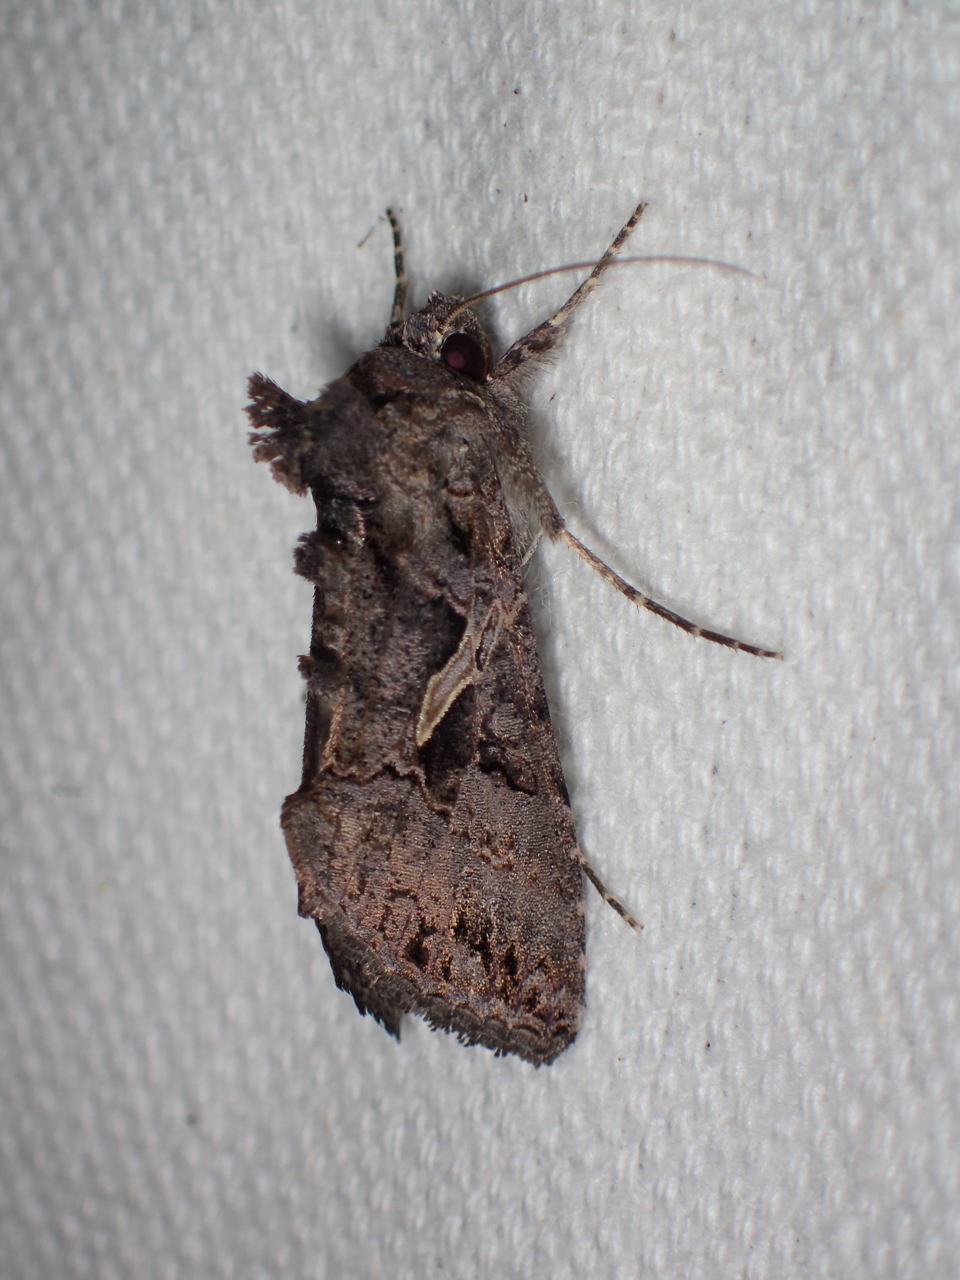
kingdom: Animalia
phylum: Arthropoda
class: Insecta
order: Lepidoptera
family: Noctuidae
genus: Ctenoplusia
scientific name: Ctenoplusia oxygramma
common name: Sharp-stigma looper moth
